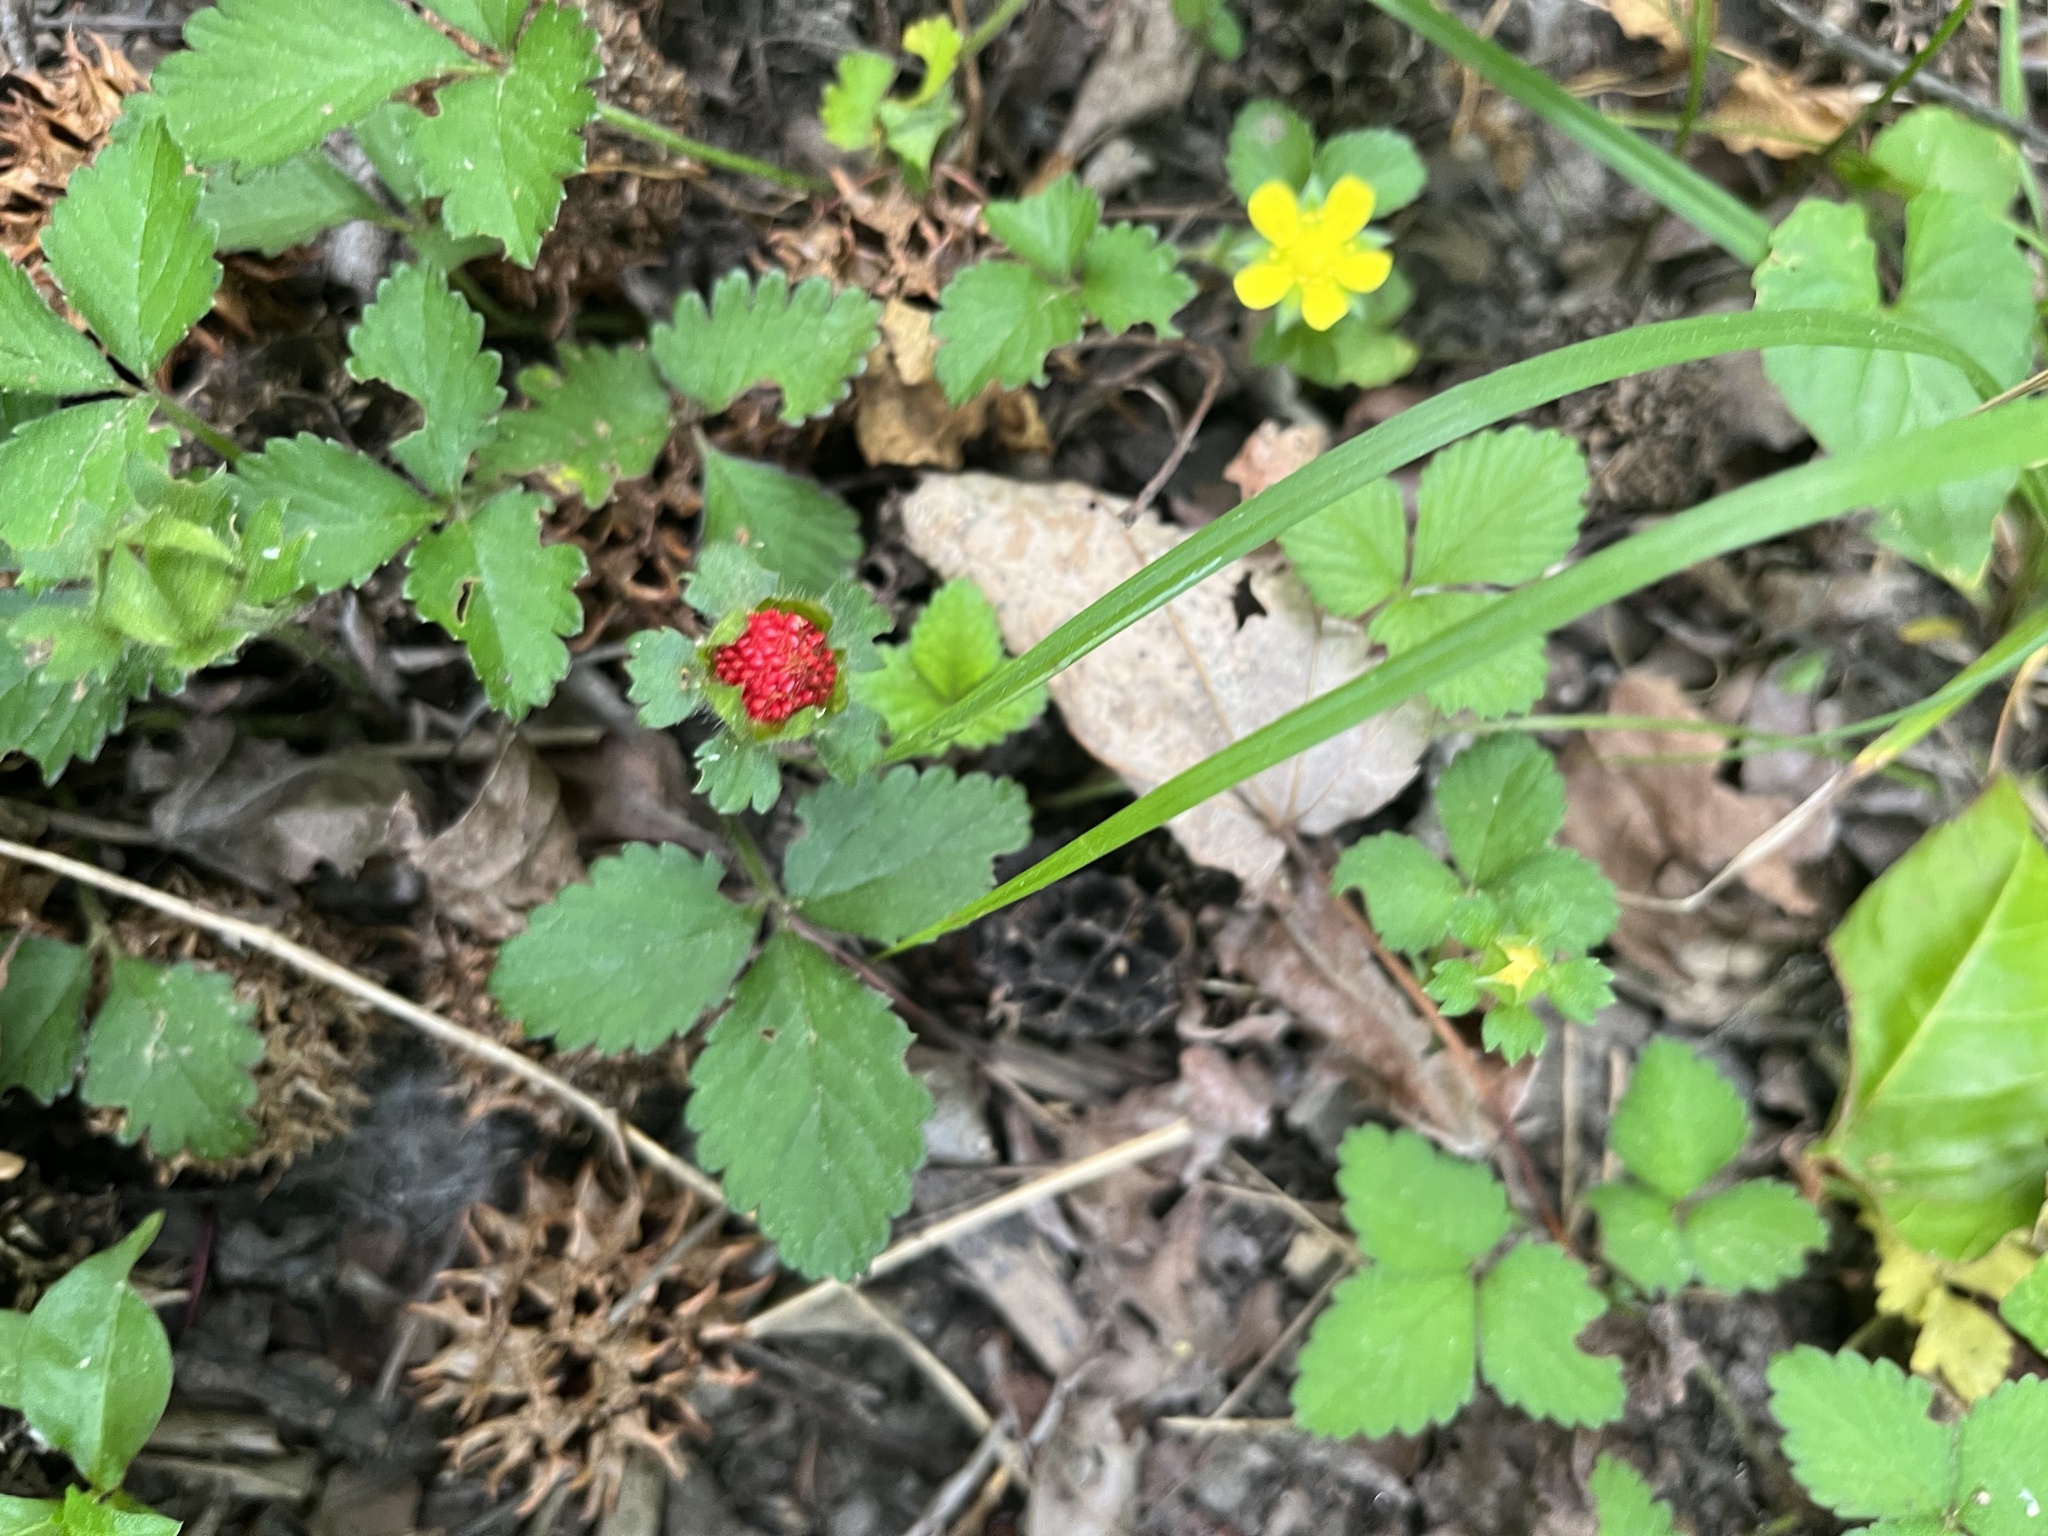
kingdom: Plantae
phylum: Tracheophyta
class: Magnoliopsida
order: Rosales
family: Rosaceae
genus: Potentilla
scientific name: Potentilla indica
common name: Yellow-flowered strawberry
